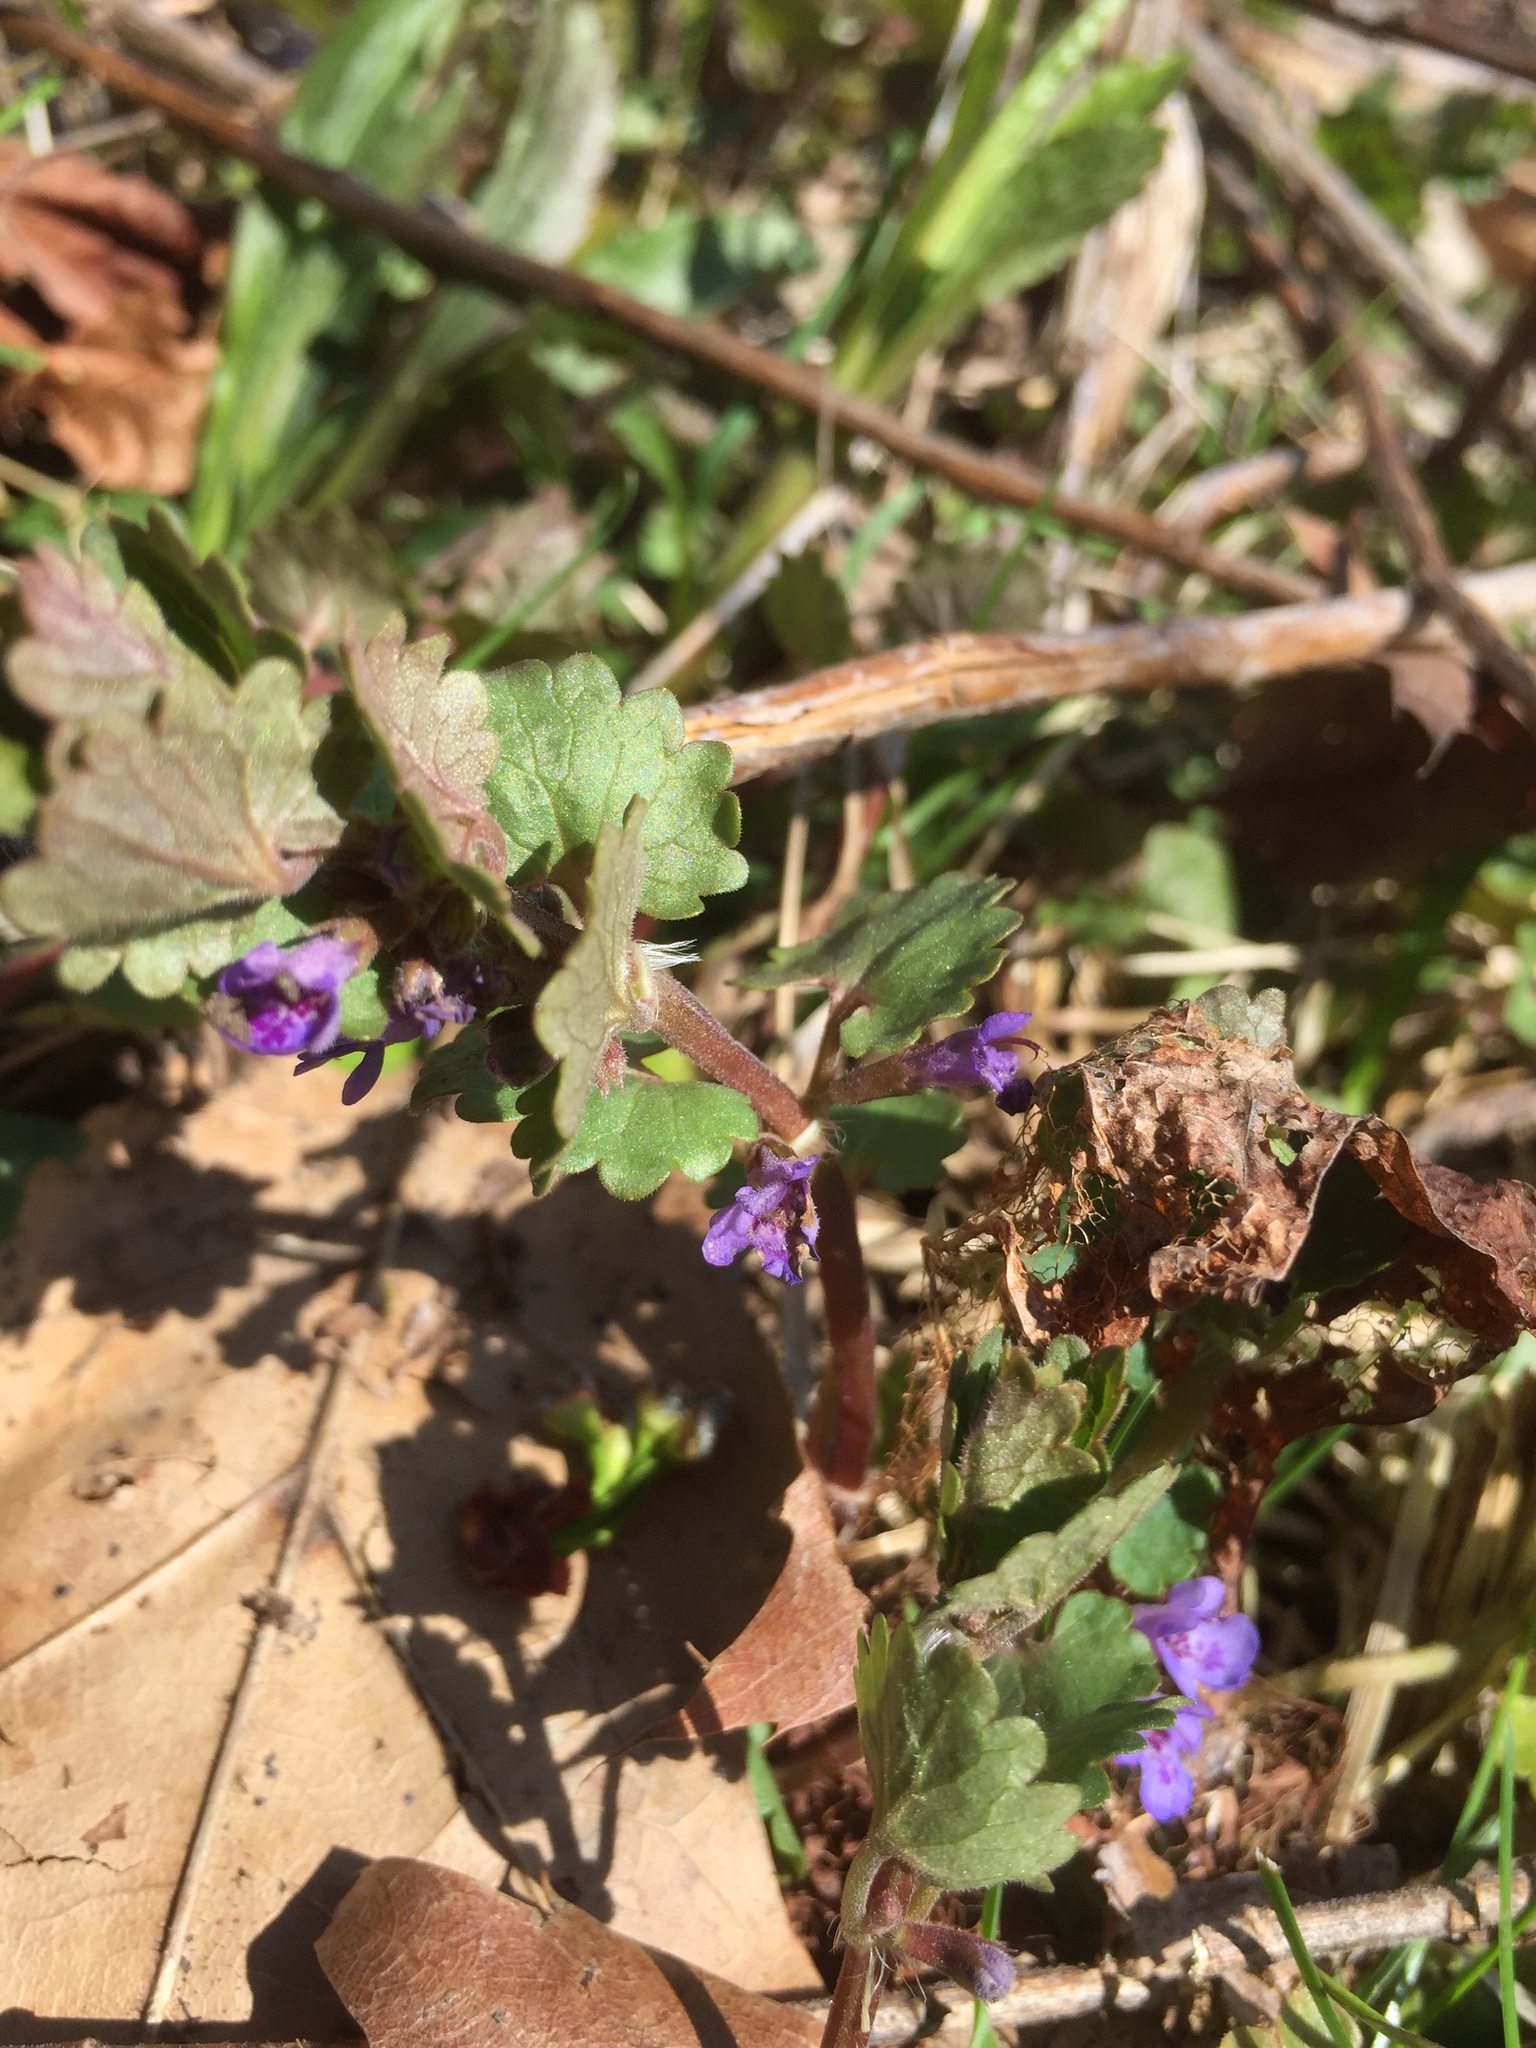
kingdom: Plantae
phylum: Tracheophyta
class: Magnoliopsida
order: Lamiales
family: Lamiaceae
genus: Glechoma
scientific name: Glechoma hederacea
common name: Ground ivy
